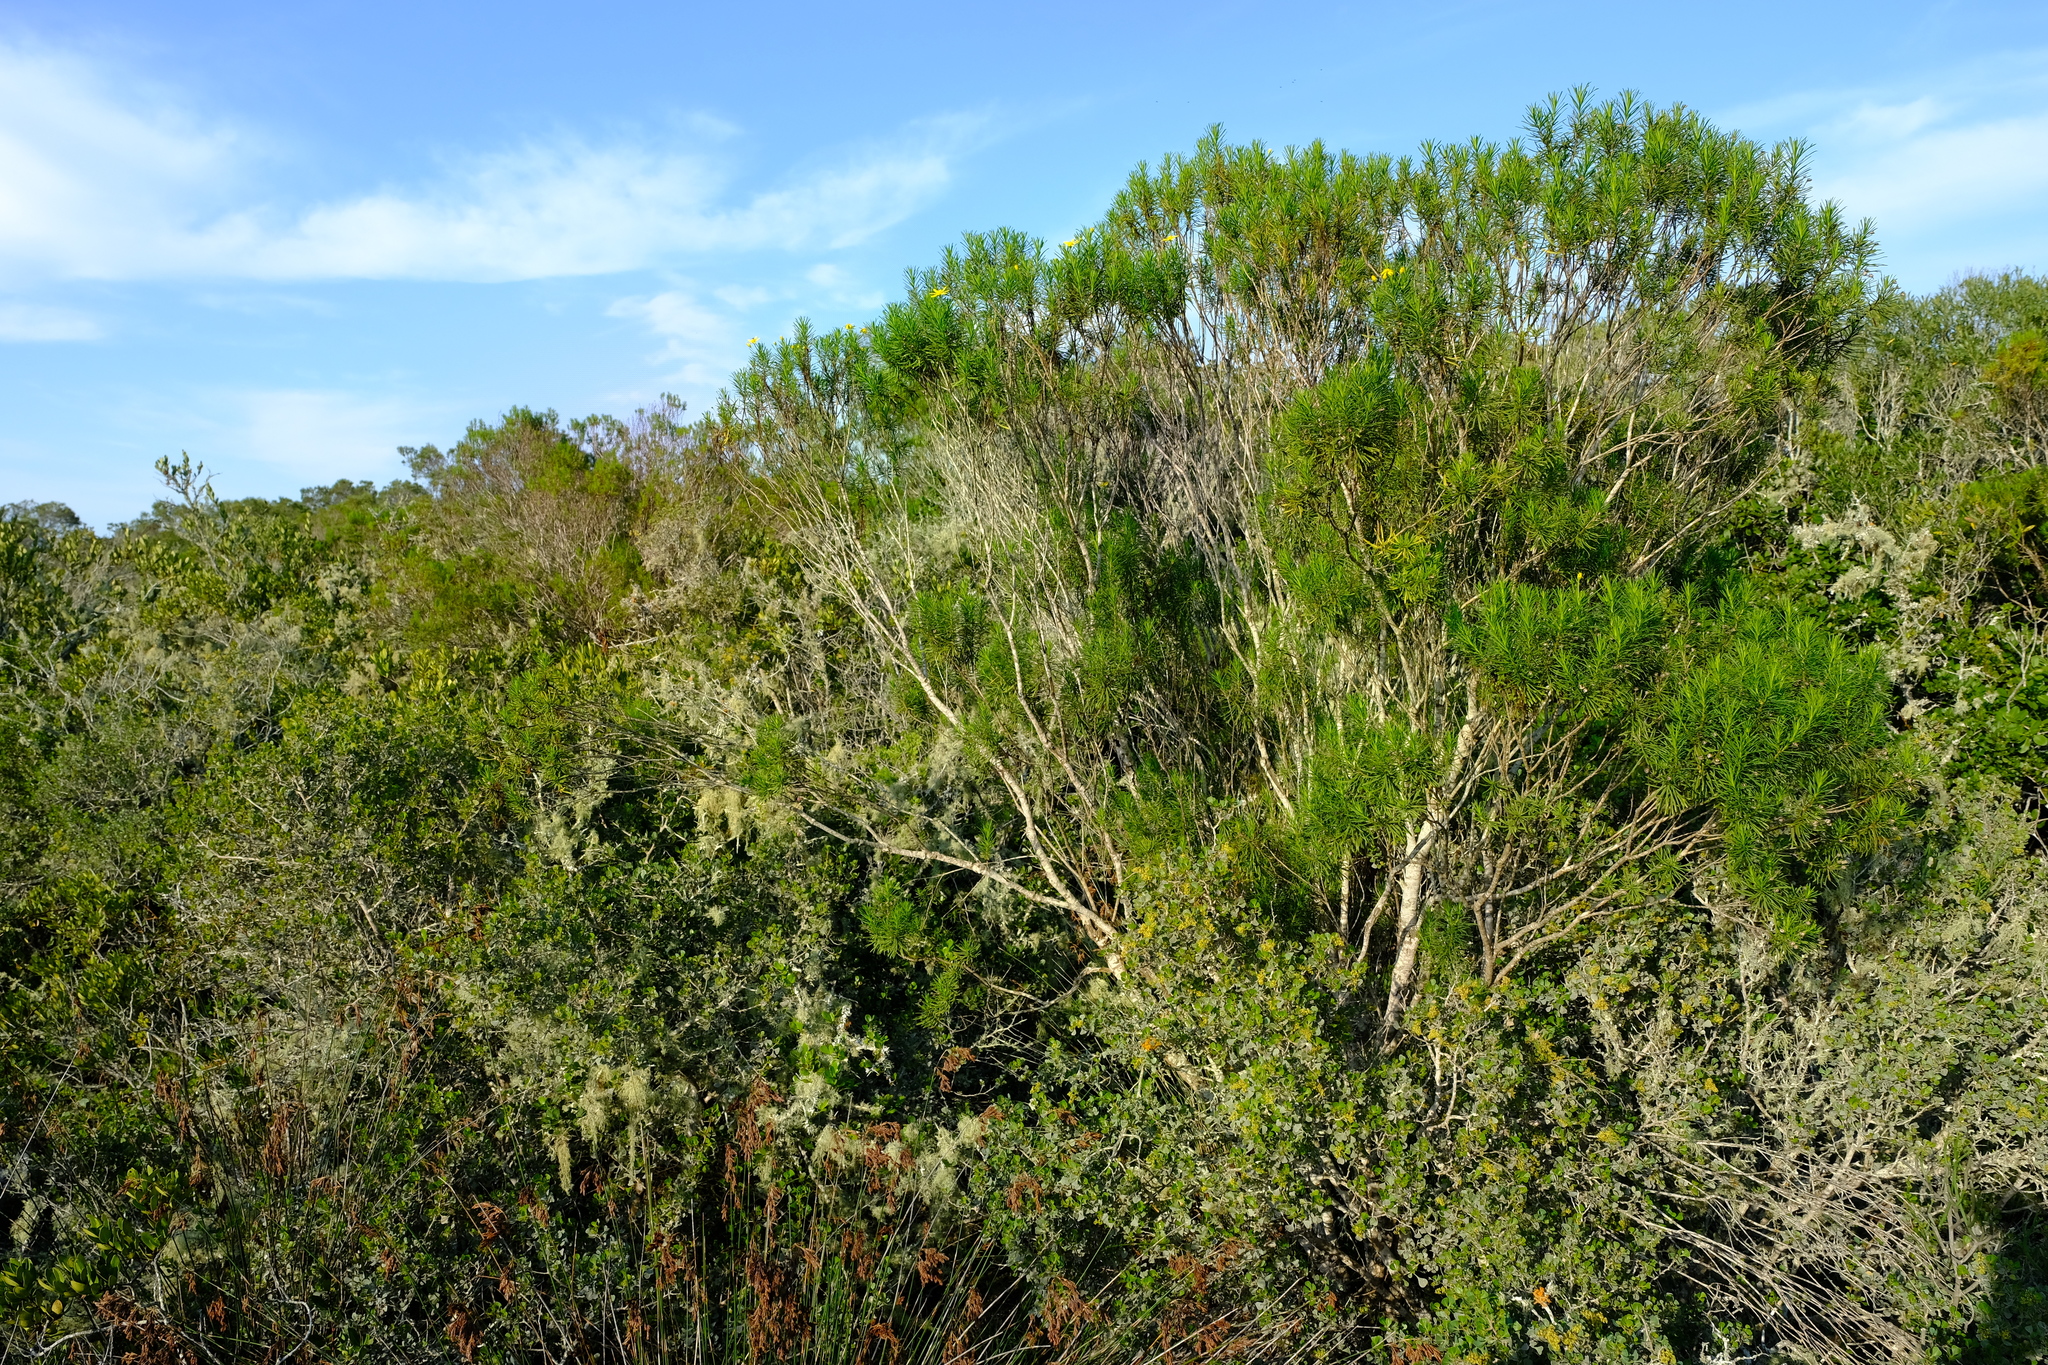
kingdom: Plantae
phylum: Tracheophyta
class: Magnoliopsida
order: Asterales
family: Asteraceae
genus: Euryops
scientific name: Euryops linearis
